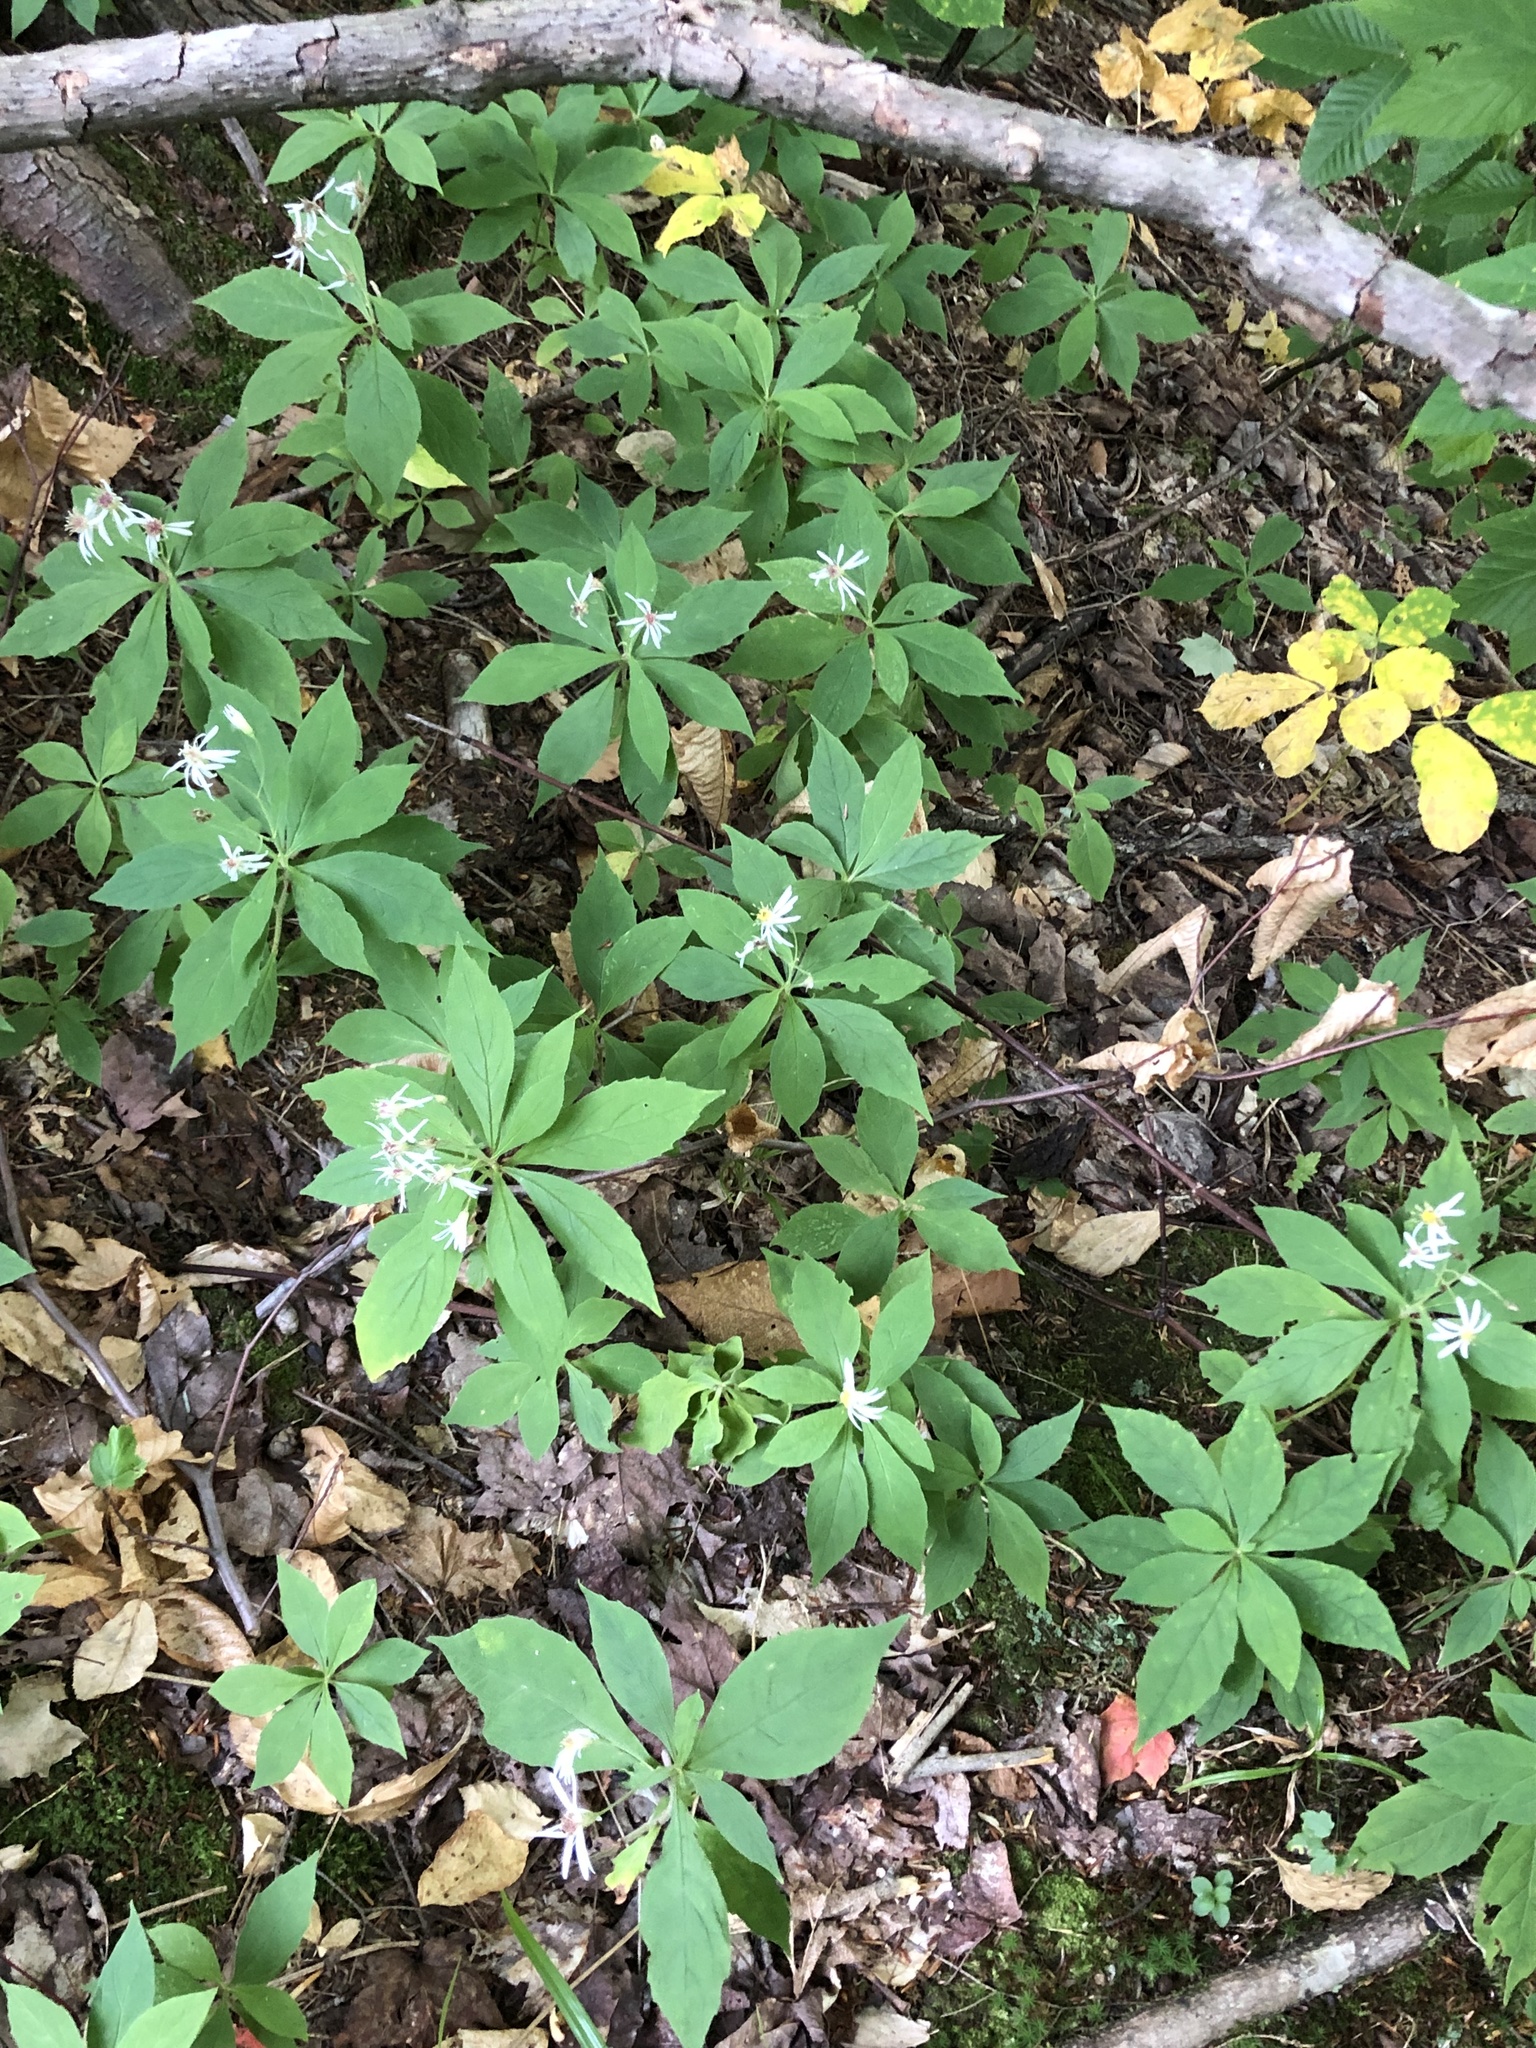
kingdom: Plantae
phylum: Tracheophyta
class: Magnoliopsida
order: Asterales
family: Asteraceae
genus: Oclemena
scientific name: Oclemena acuminata
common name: Mountain aster
